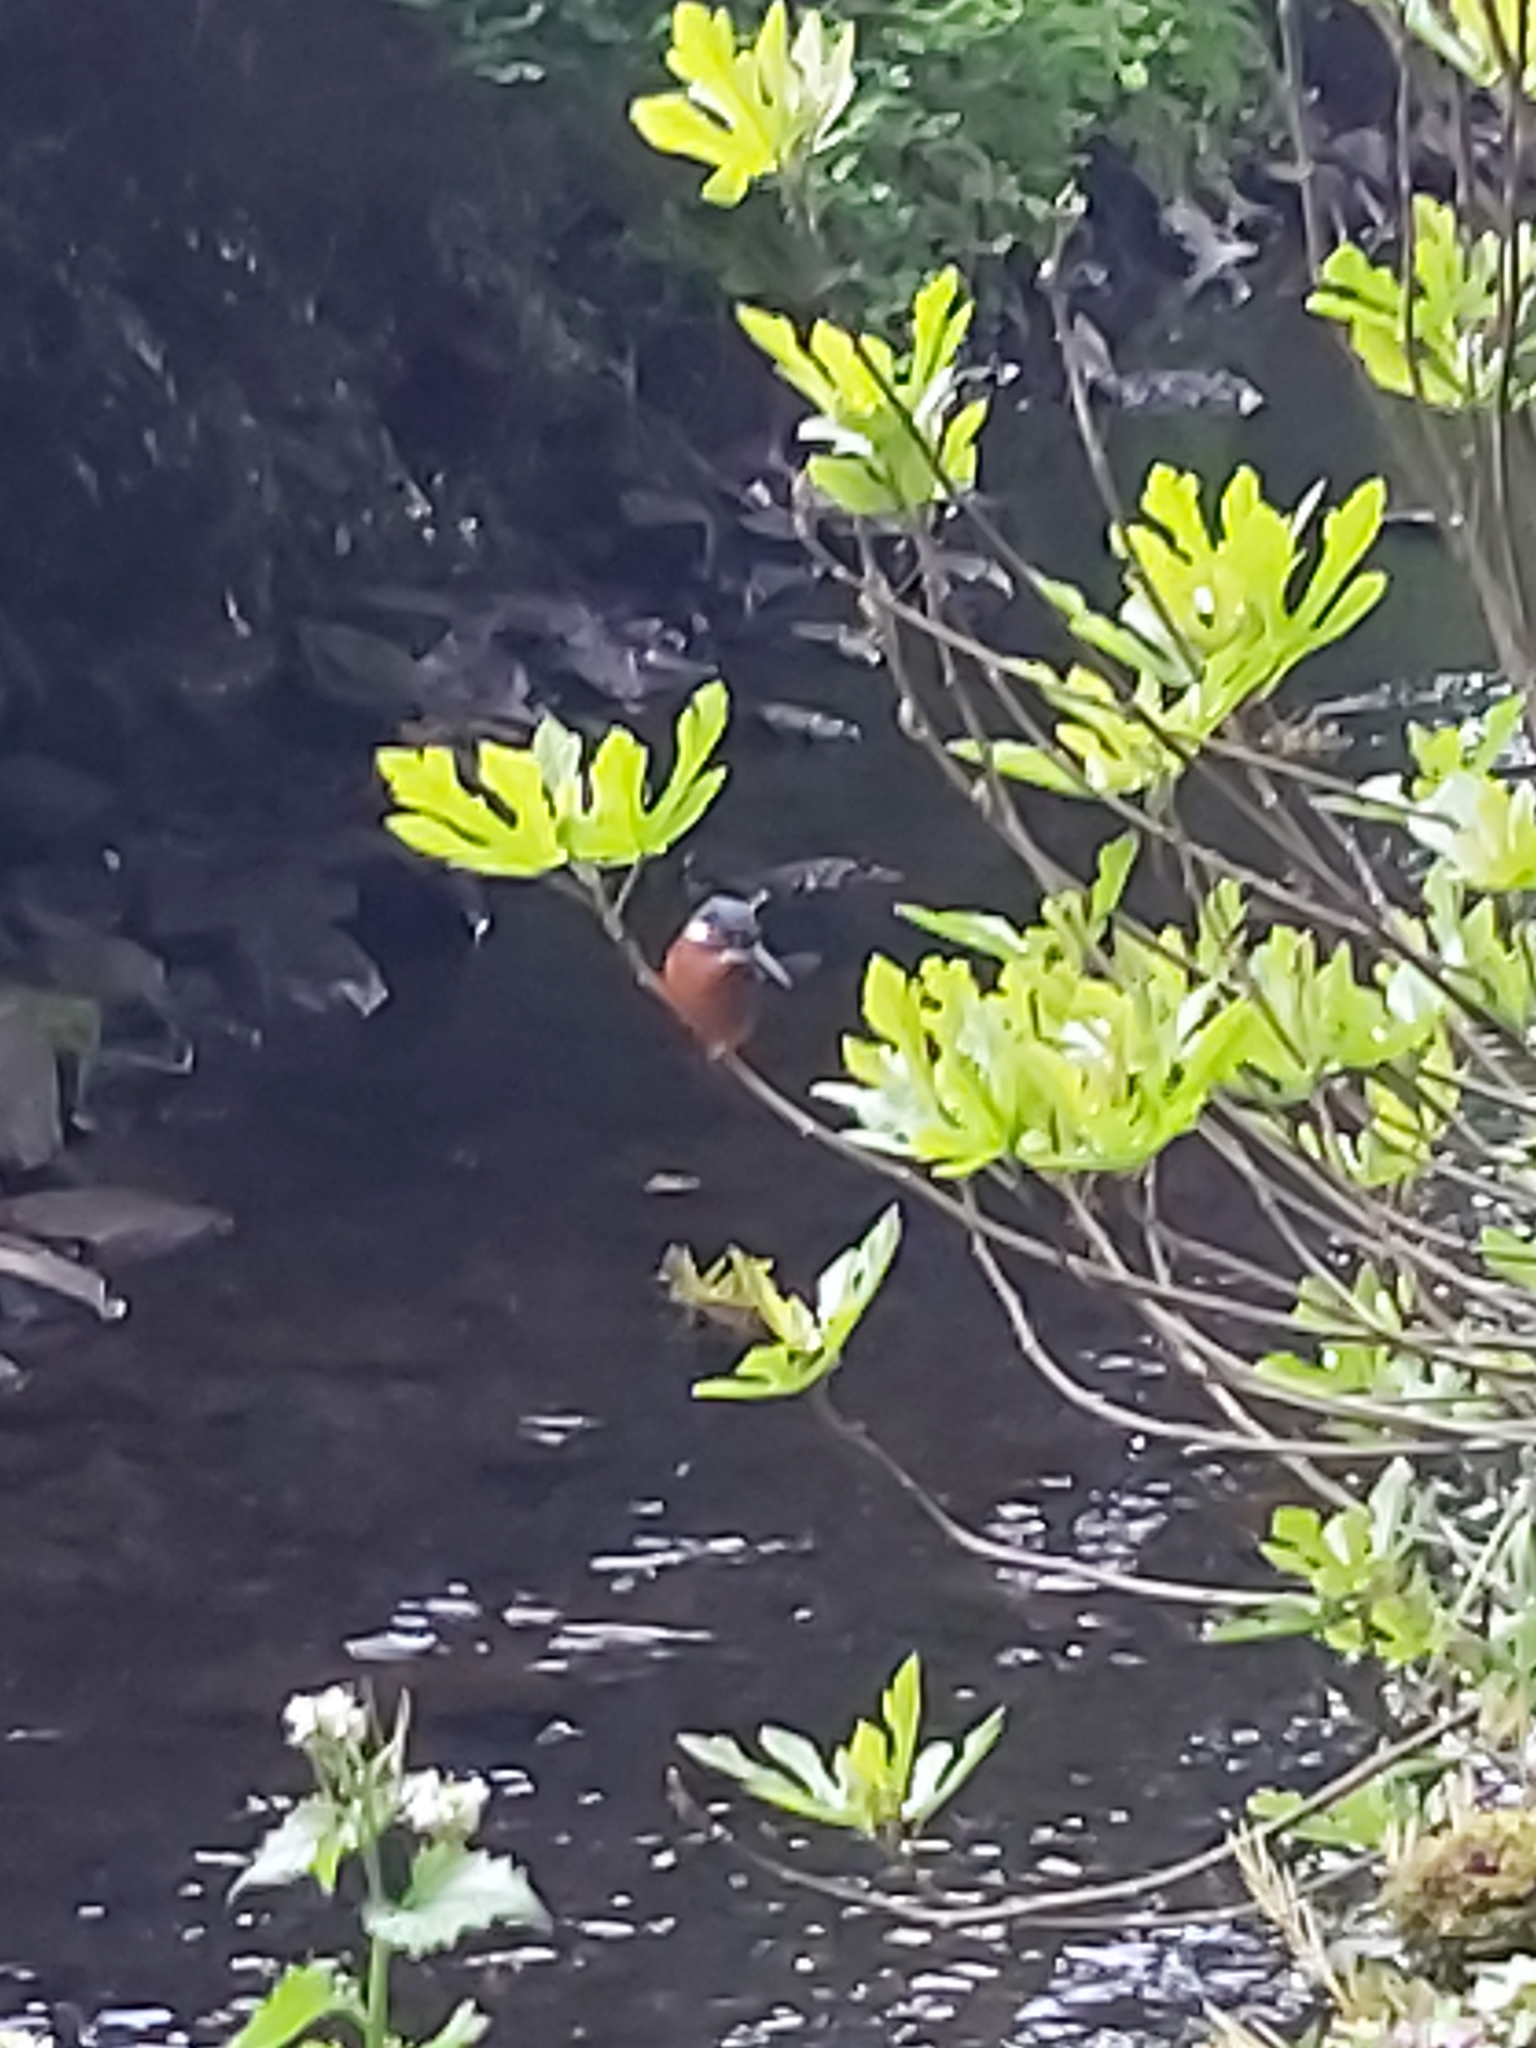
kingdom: Animalia
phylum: Chordata
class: Aves
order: Coraciiformes
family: Alcedinidae
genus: Alcedo
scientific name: Alcedo atthis
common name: Common kingfisher
